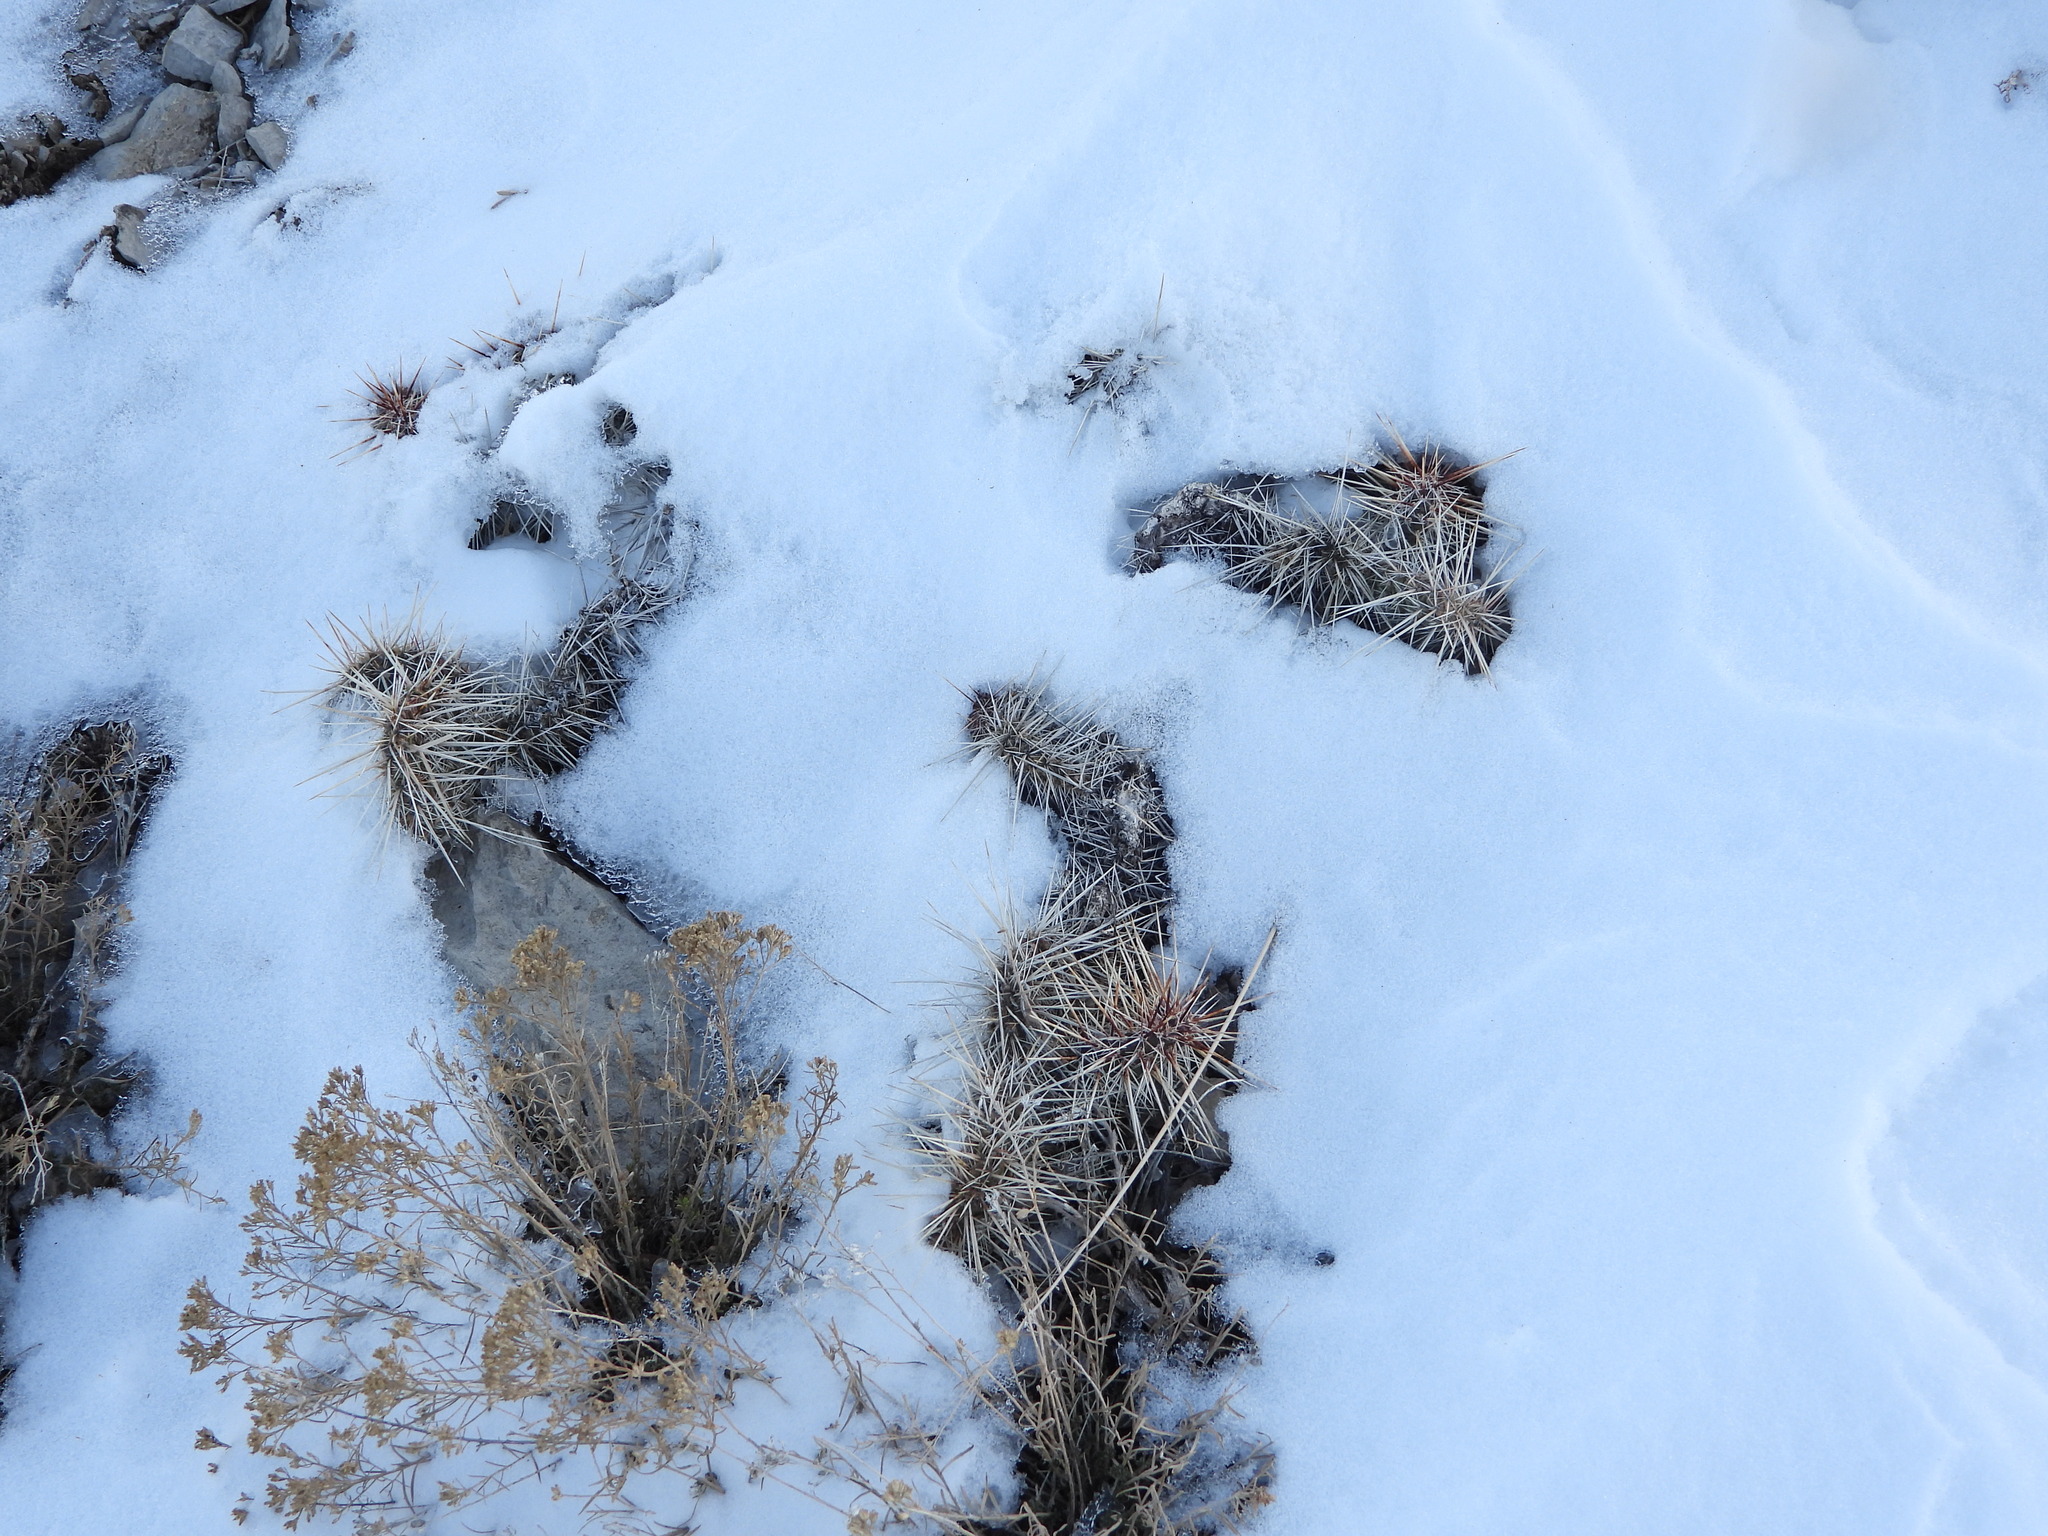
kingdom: Plantae
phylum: Tracheophyta
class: Magnoliopsida
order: Caryophyllales
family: Cactaceae
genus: Opuntia
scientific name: Opuntia polyacantha
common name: Plains prickly-pear
